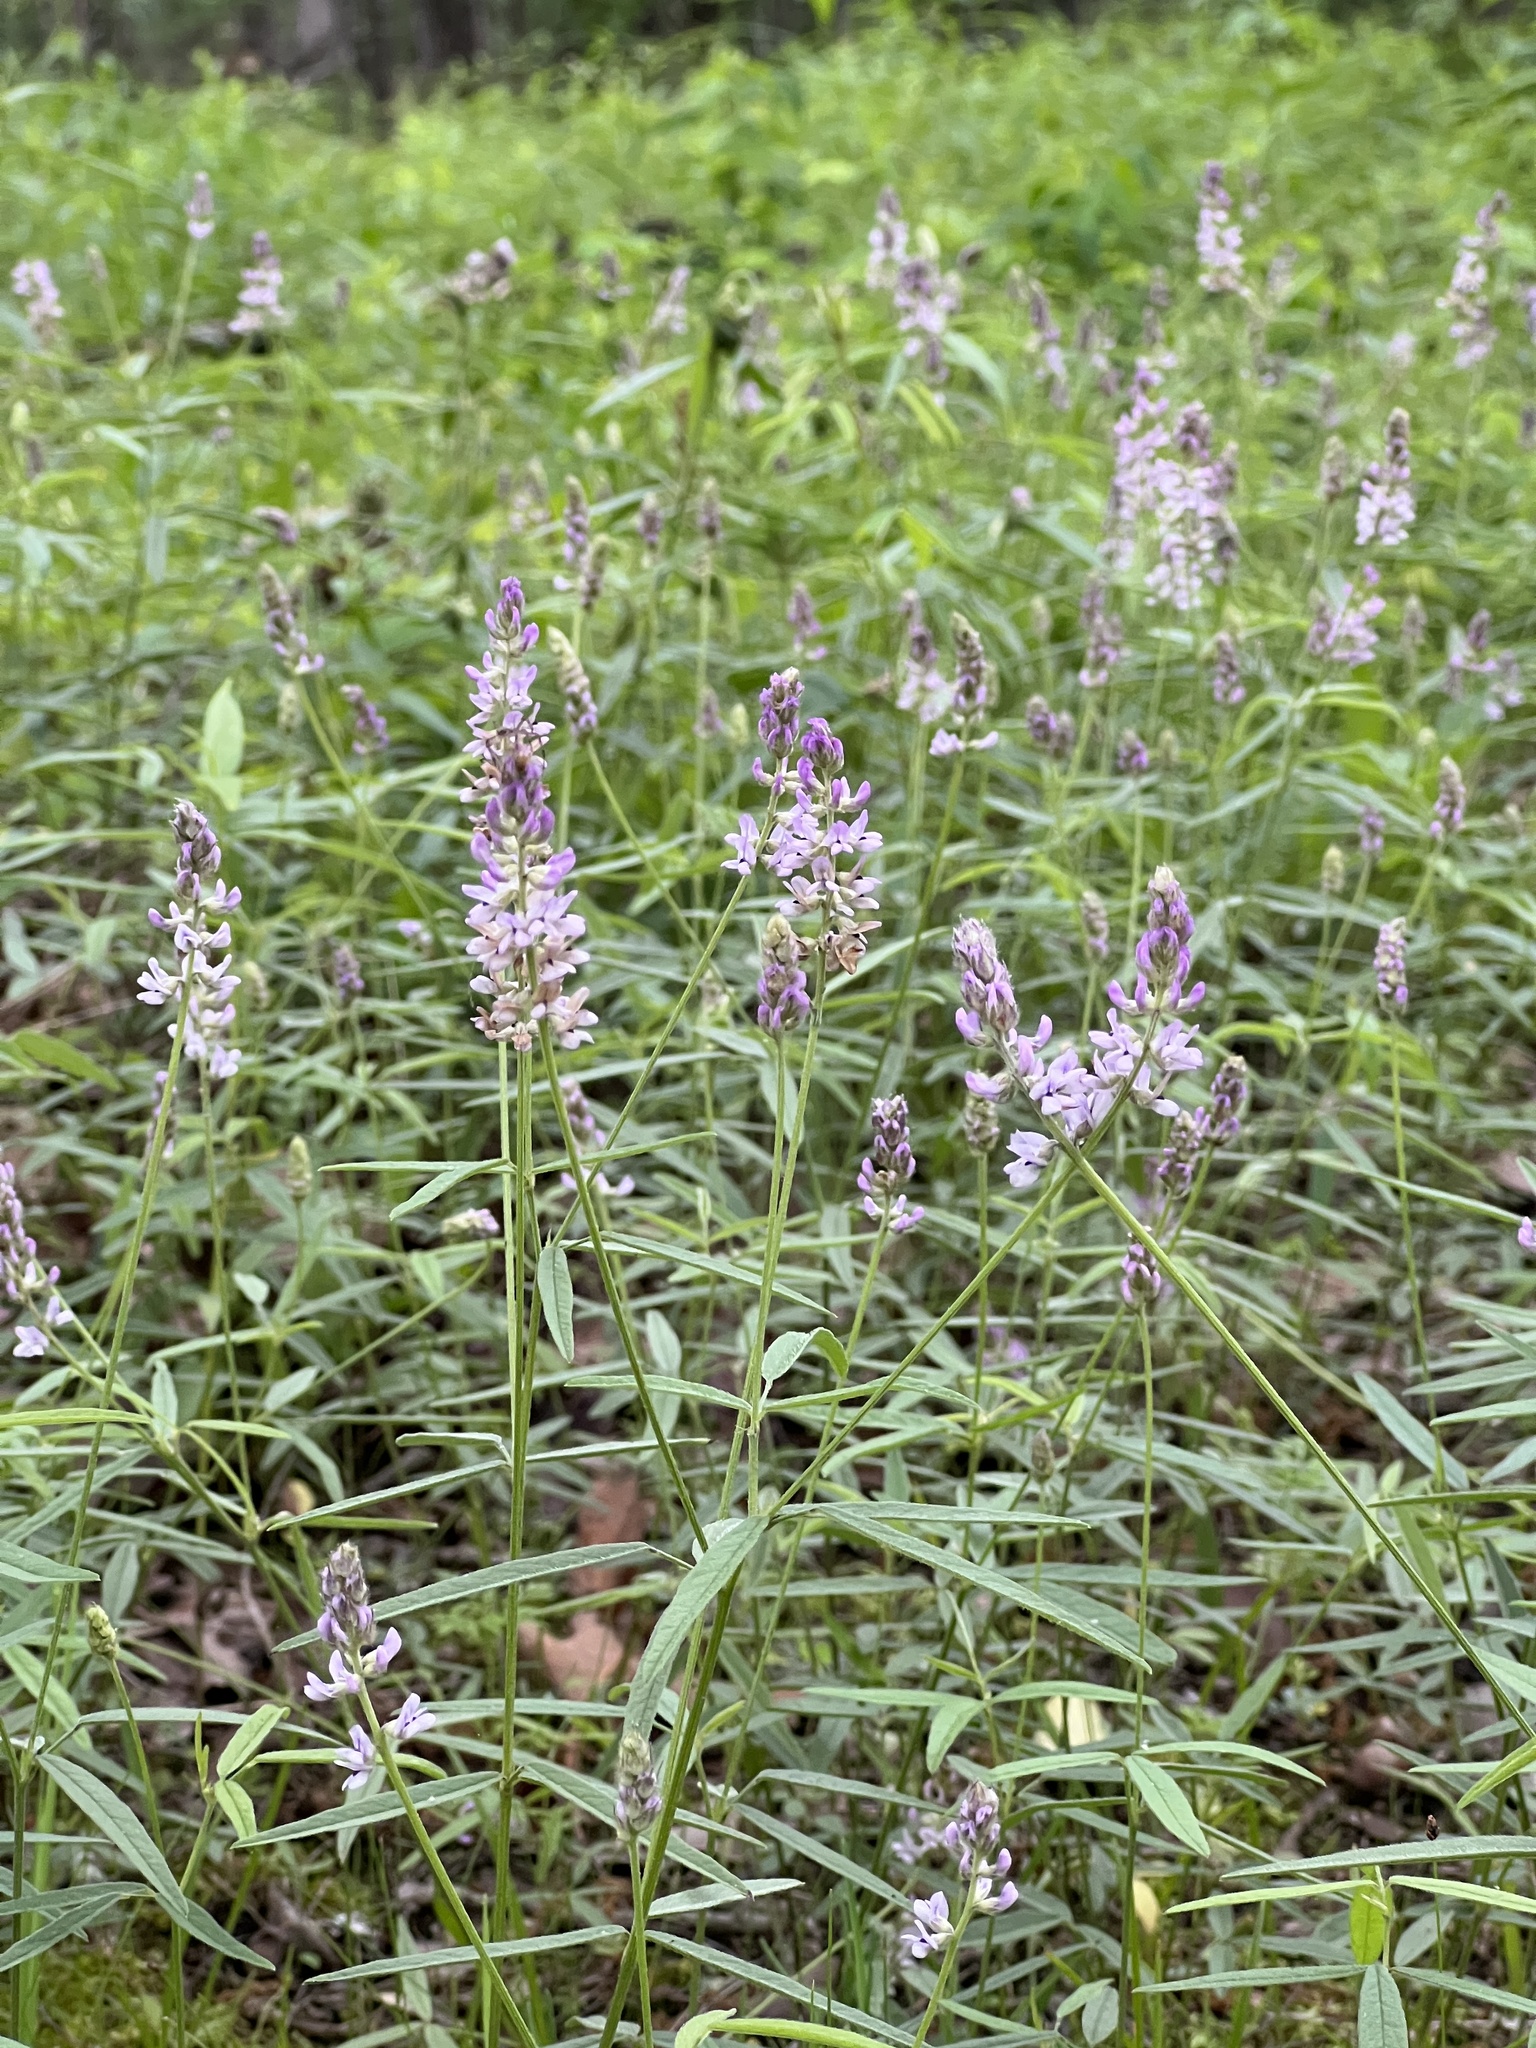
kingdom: Plantae
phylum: Tracheophyta
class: Magnoliopsida
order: Fabales
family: Fabaceae
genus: Orbexilum
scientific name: Orbexilum pedunculatum
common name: Sampson's snakeroot
